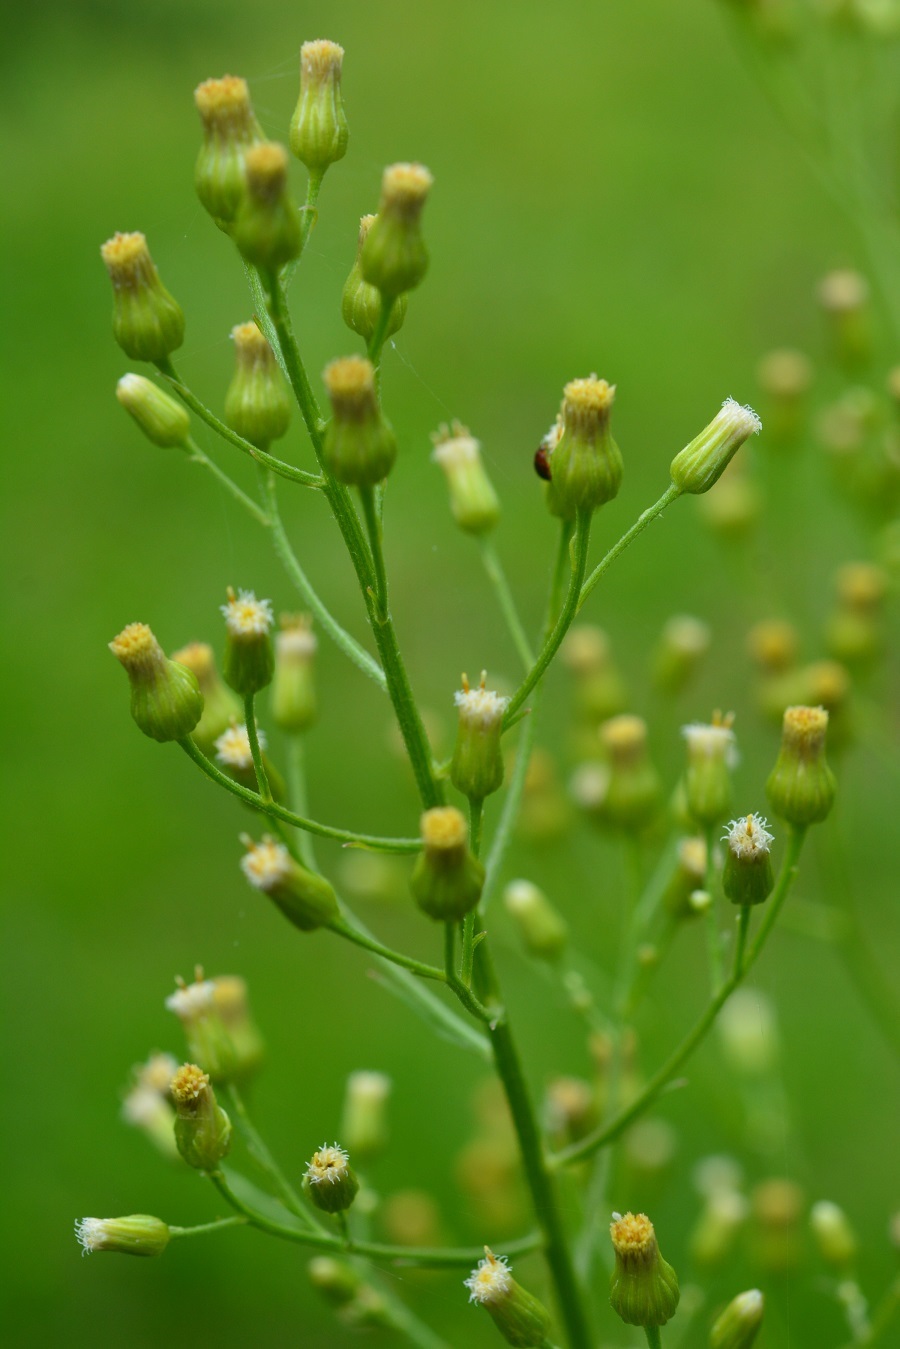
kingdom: Plantae
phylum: Tracheophyta
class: Magnoliopsida
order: Asterales
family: Asteraceae
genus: Erigeron
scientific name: Erigeron canadensis
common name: Canadian fleabane
